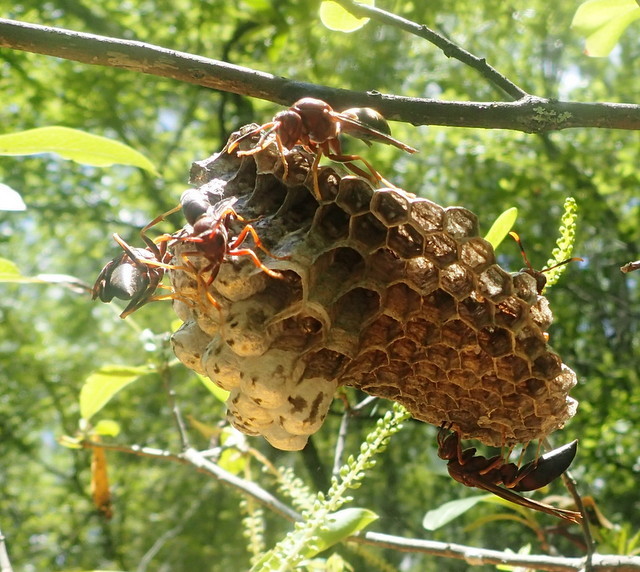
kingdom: Animalia
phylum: Arthropoda
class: Insecta
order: Hymenoptera
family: Eumenidae
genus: Polistes
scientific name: Polistes annularis
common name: Ringed paper wasp
